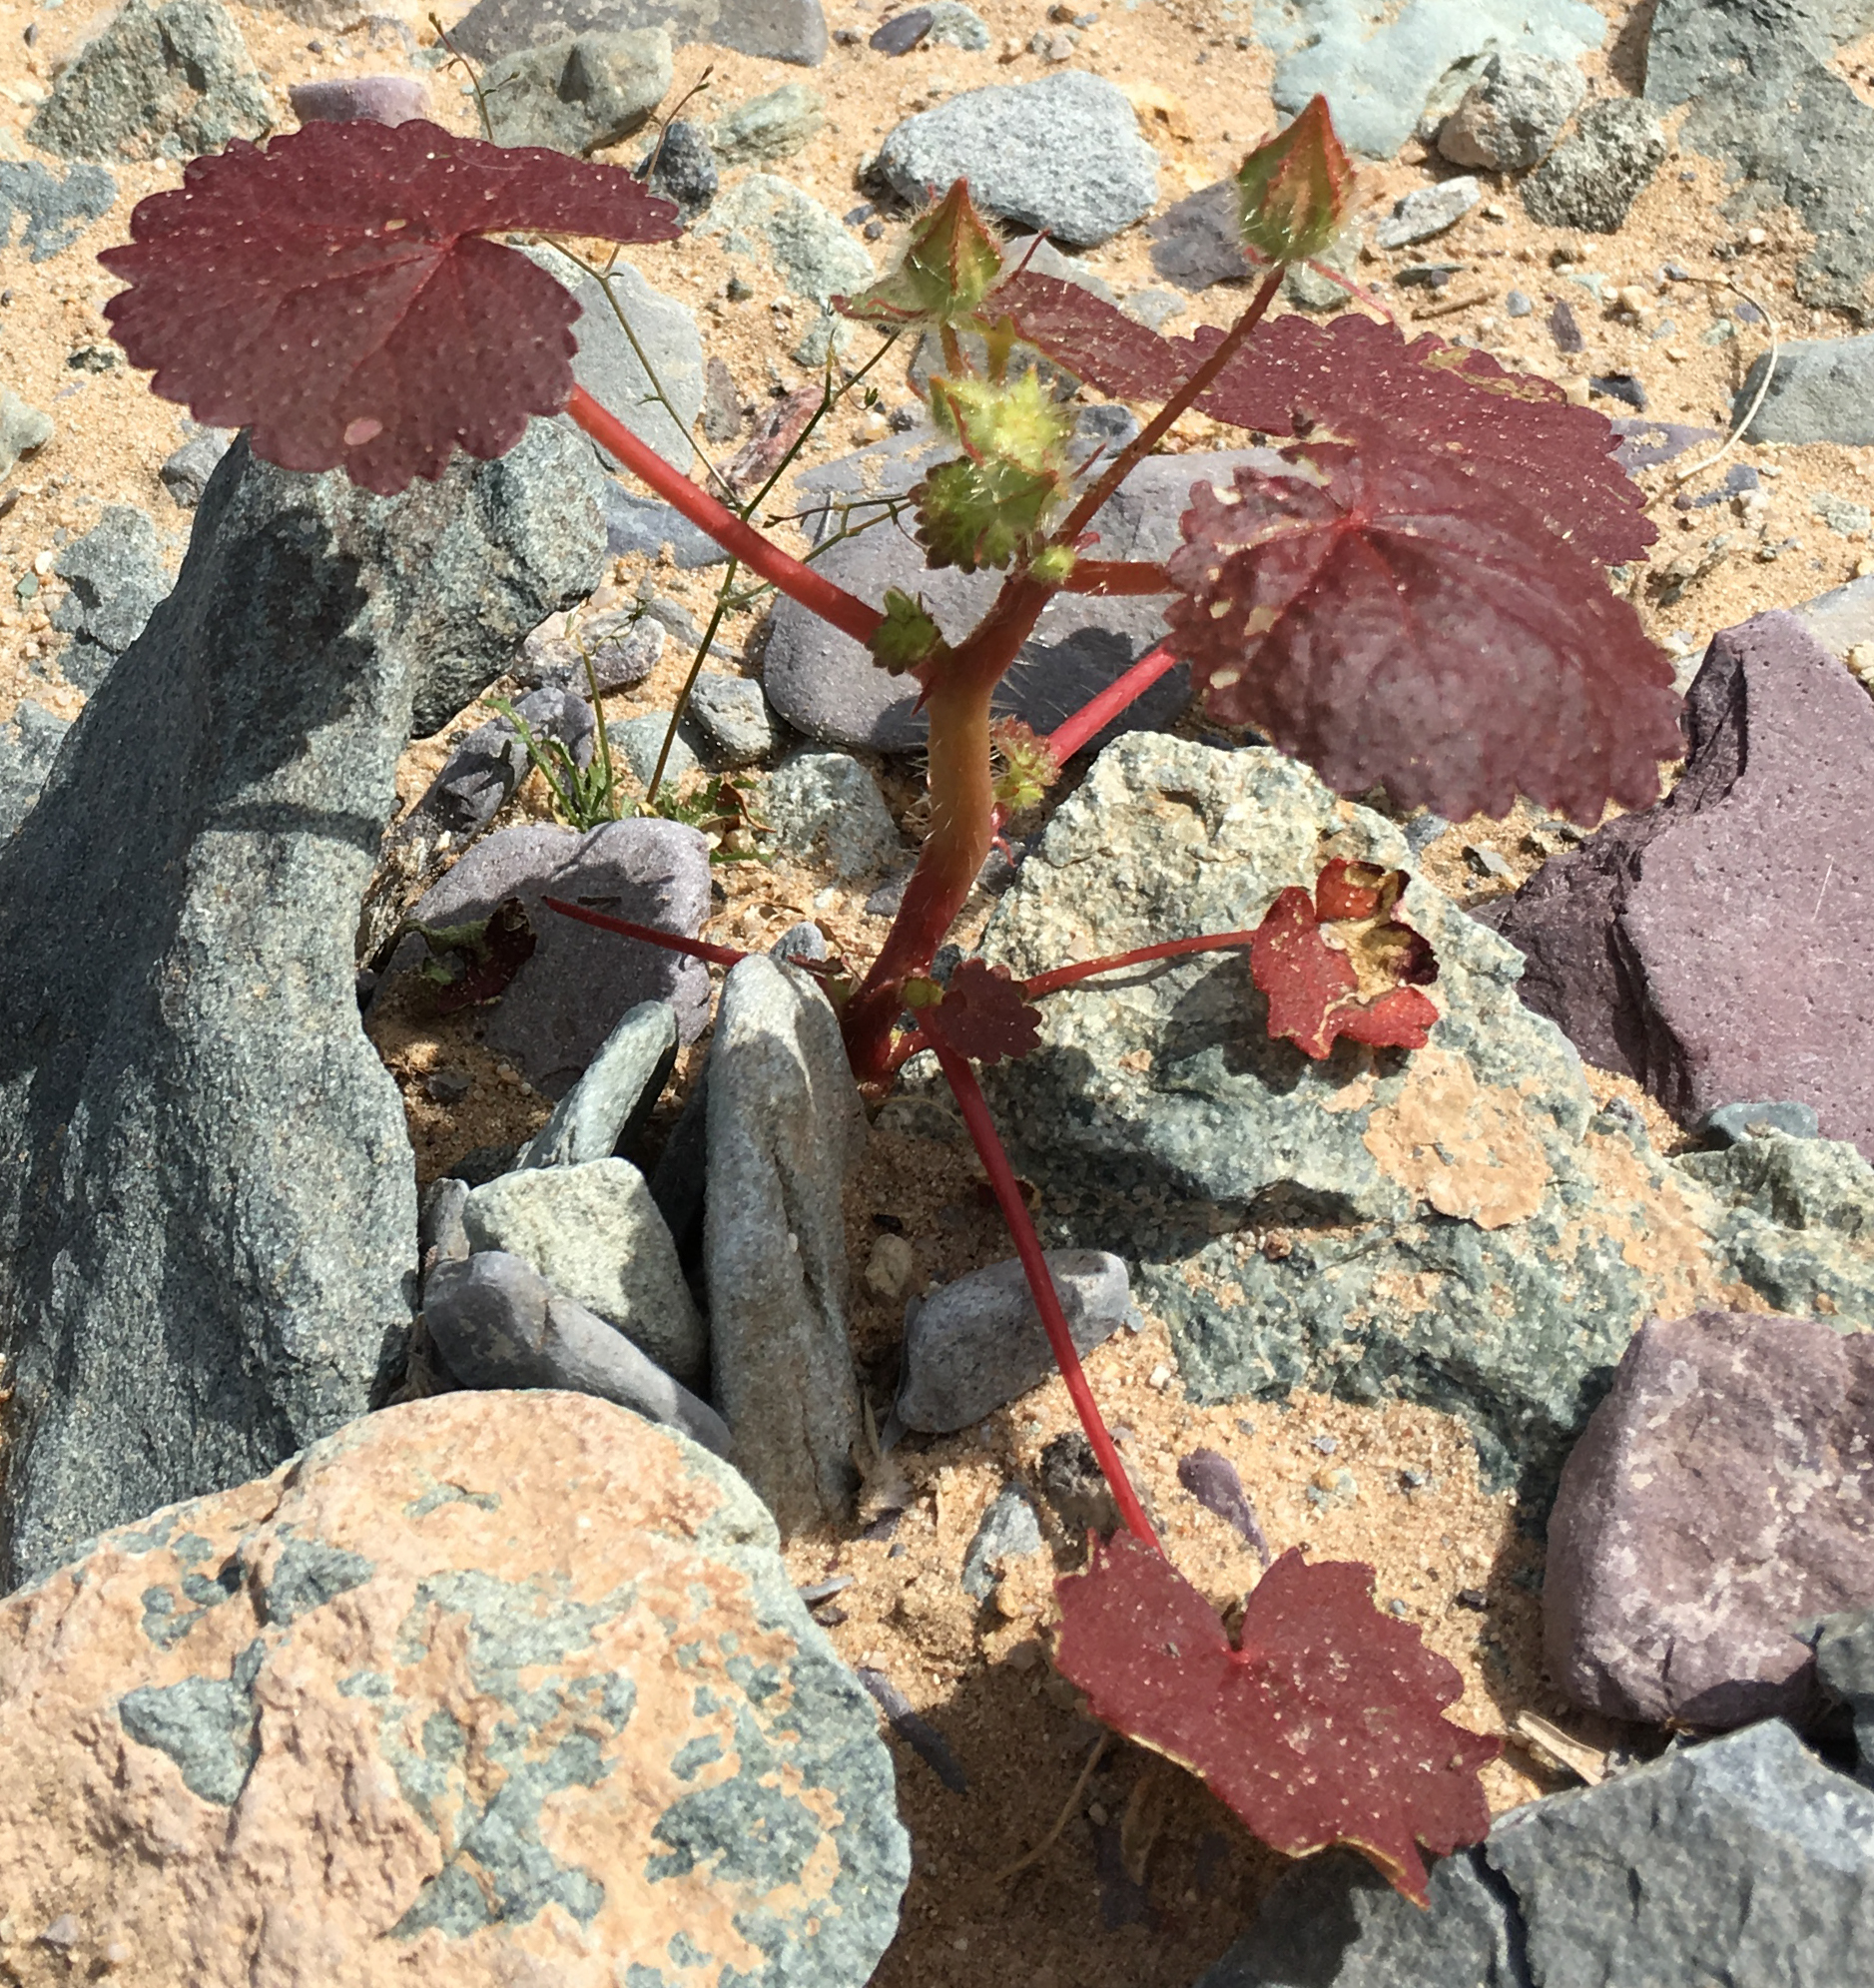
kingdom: Plantae
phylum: Tracheophyta
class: Magnoliopsida
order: Malvales
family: Malvaceae
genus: Eremalche
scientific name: Eremalche rotundifolia
